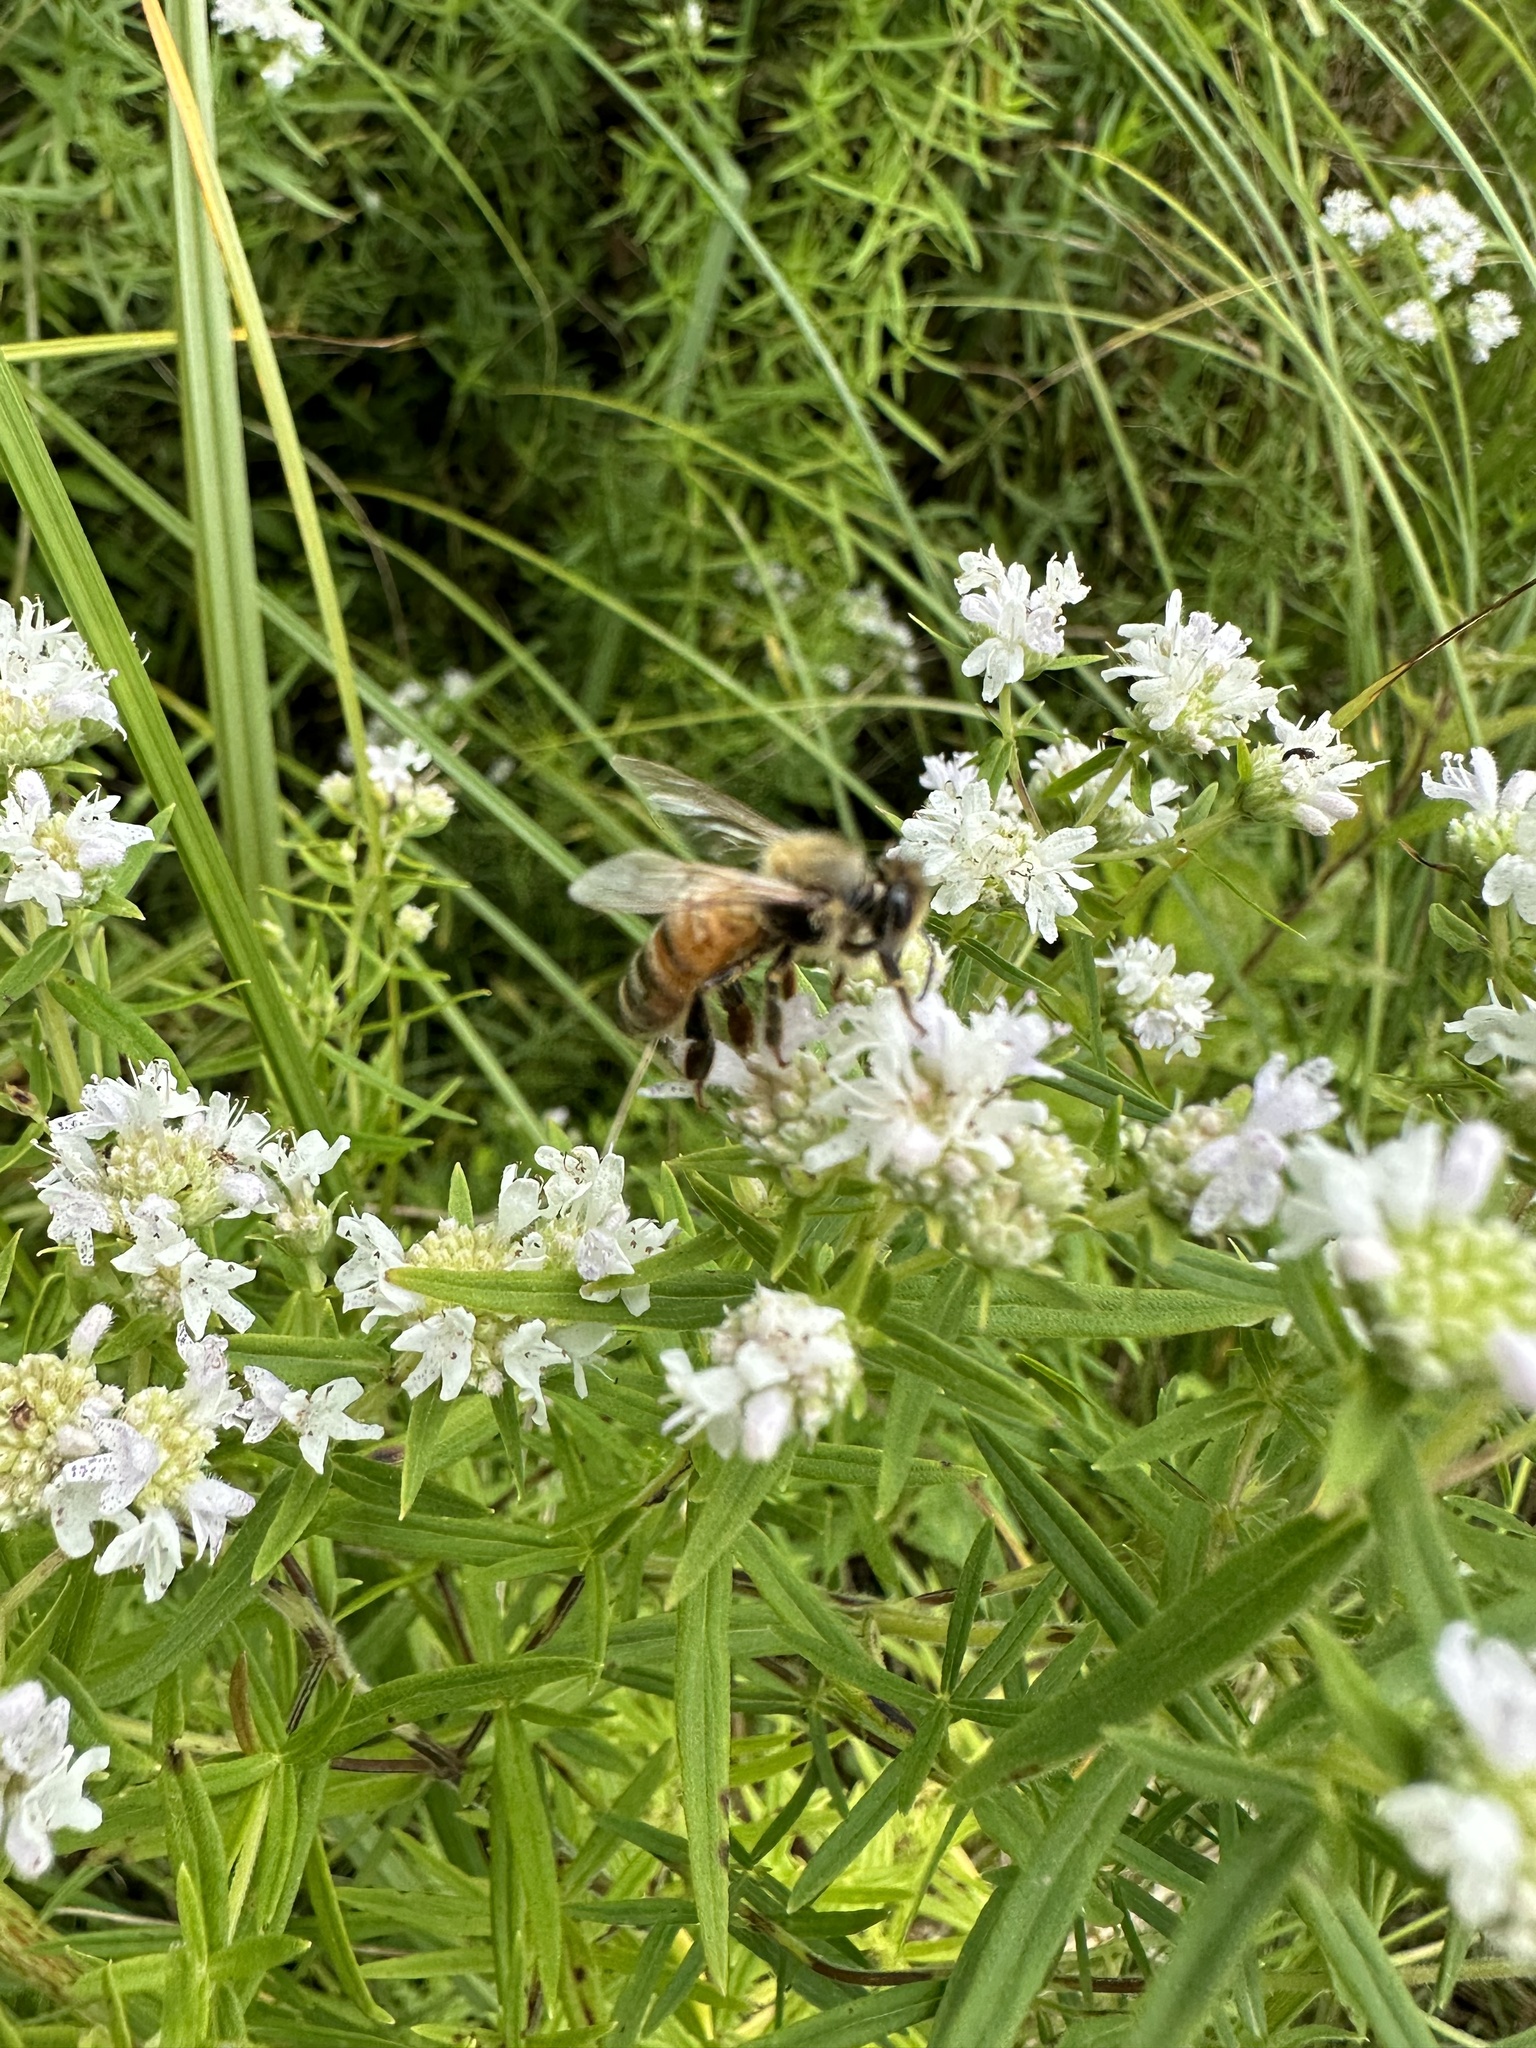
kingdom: Plantae
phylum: Tracheophyta
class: Magnoliopsida
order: Lamiales
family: Lamiaceae
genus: Pycnanthemum
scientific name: Pycnanthemum virginianum
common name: Virginia mountain-mint
